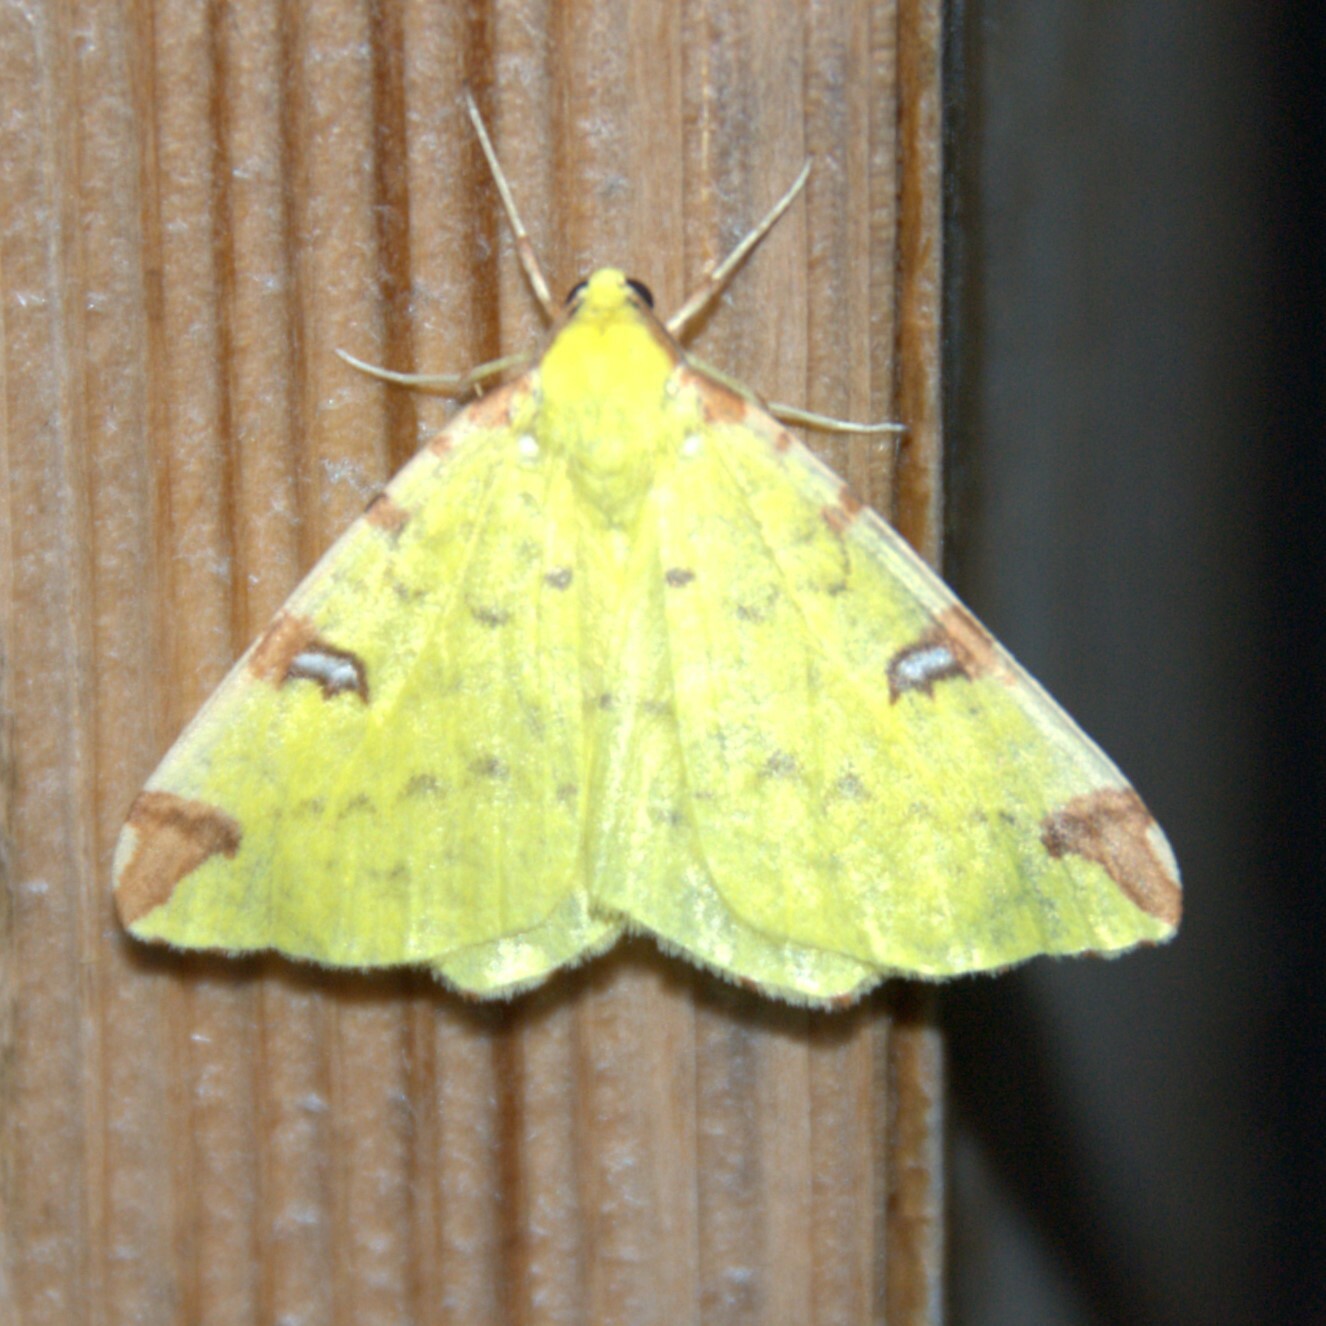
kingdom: Animalia
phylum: Arthropoda
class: Insecta
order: Lepidoptera
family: Geometridae
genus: Opisthograptis
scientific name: Opisthograptis luteolata
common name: Brimstone moth
